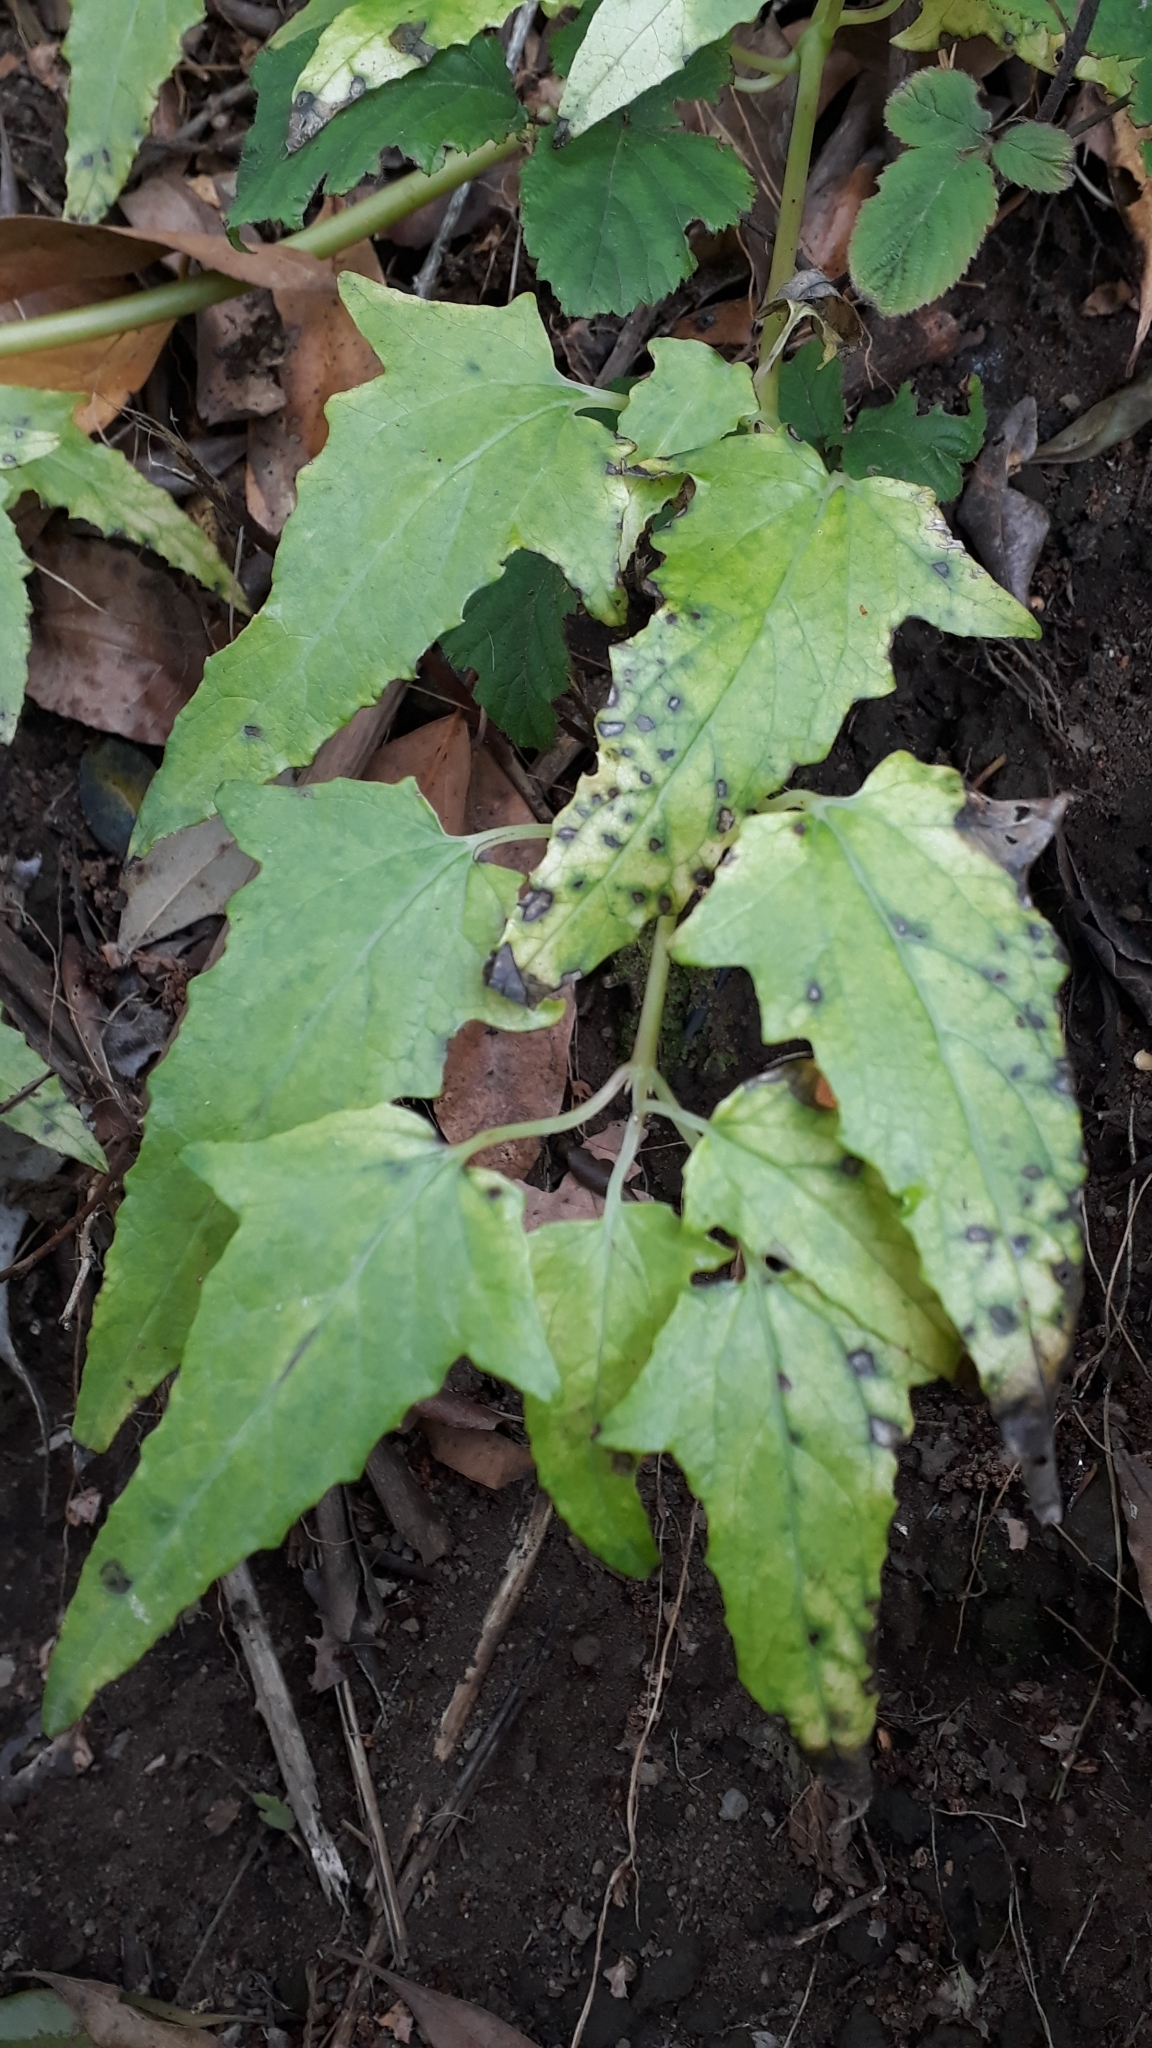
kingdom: Plantae
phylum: Tracheophyta
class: Magnoliopsida
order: Asterales
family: Campanulaceae
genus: Canarina
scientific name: Canarina canariensis
